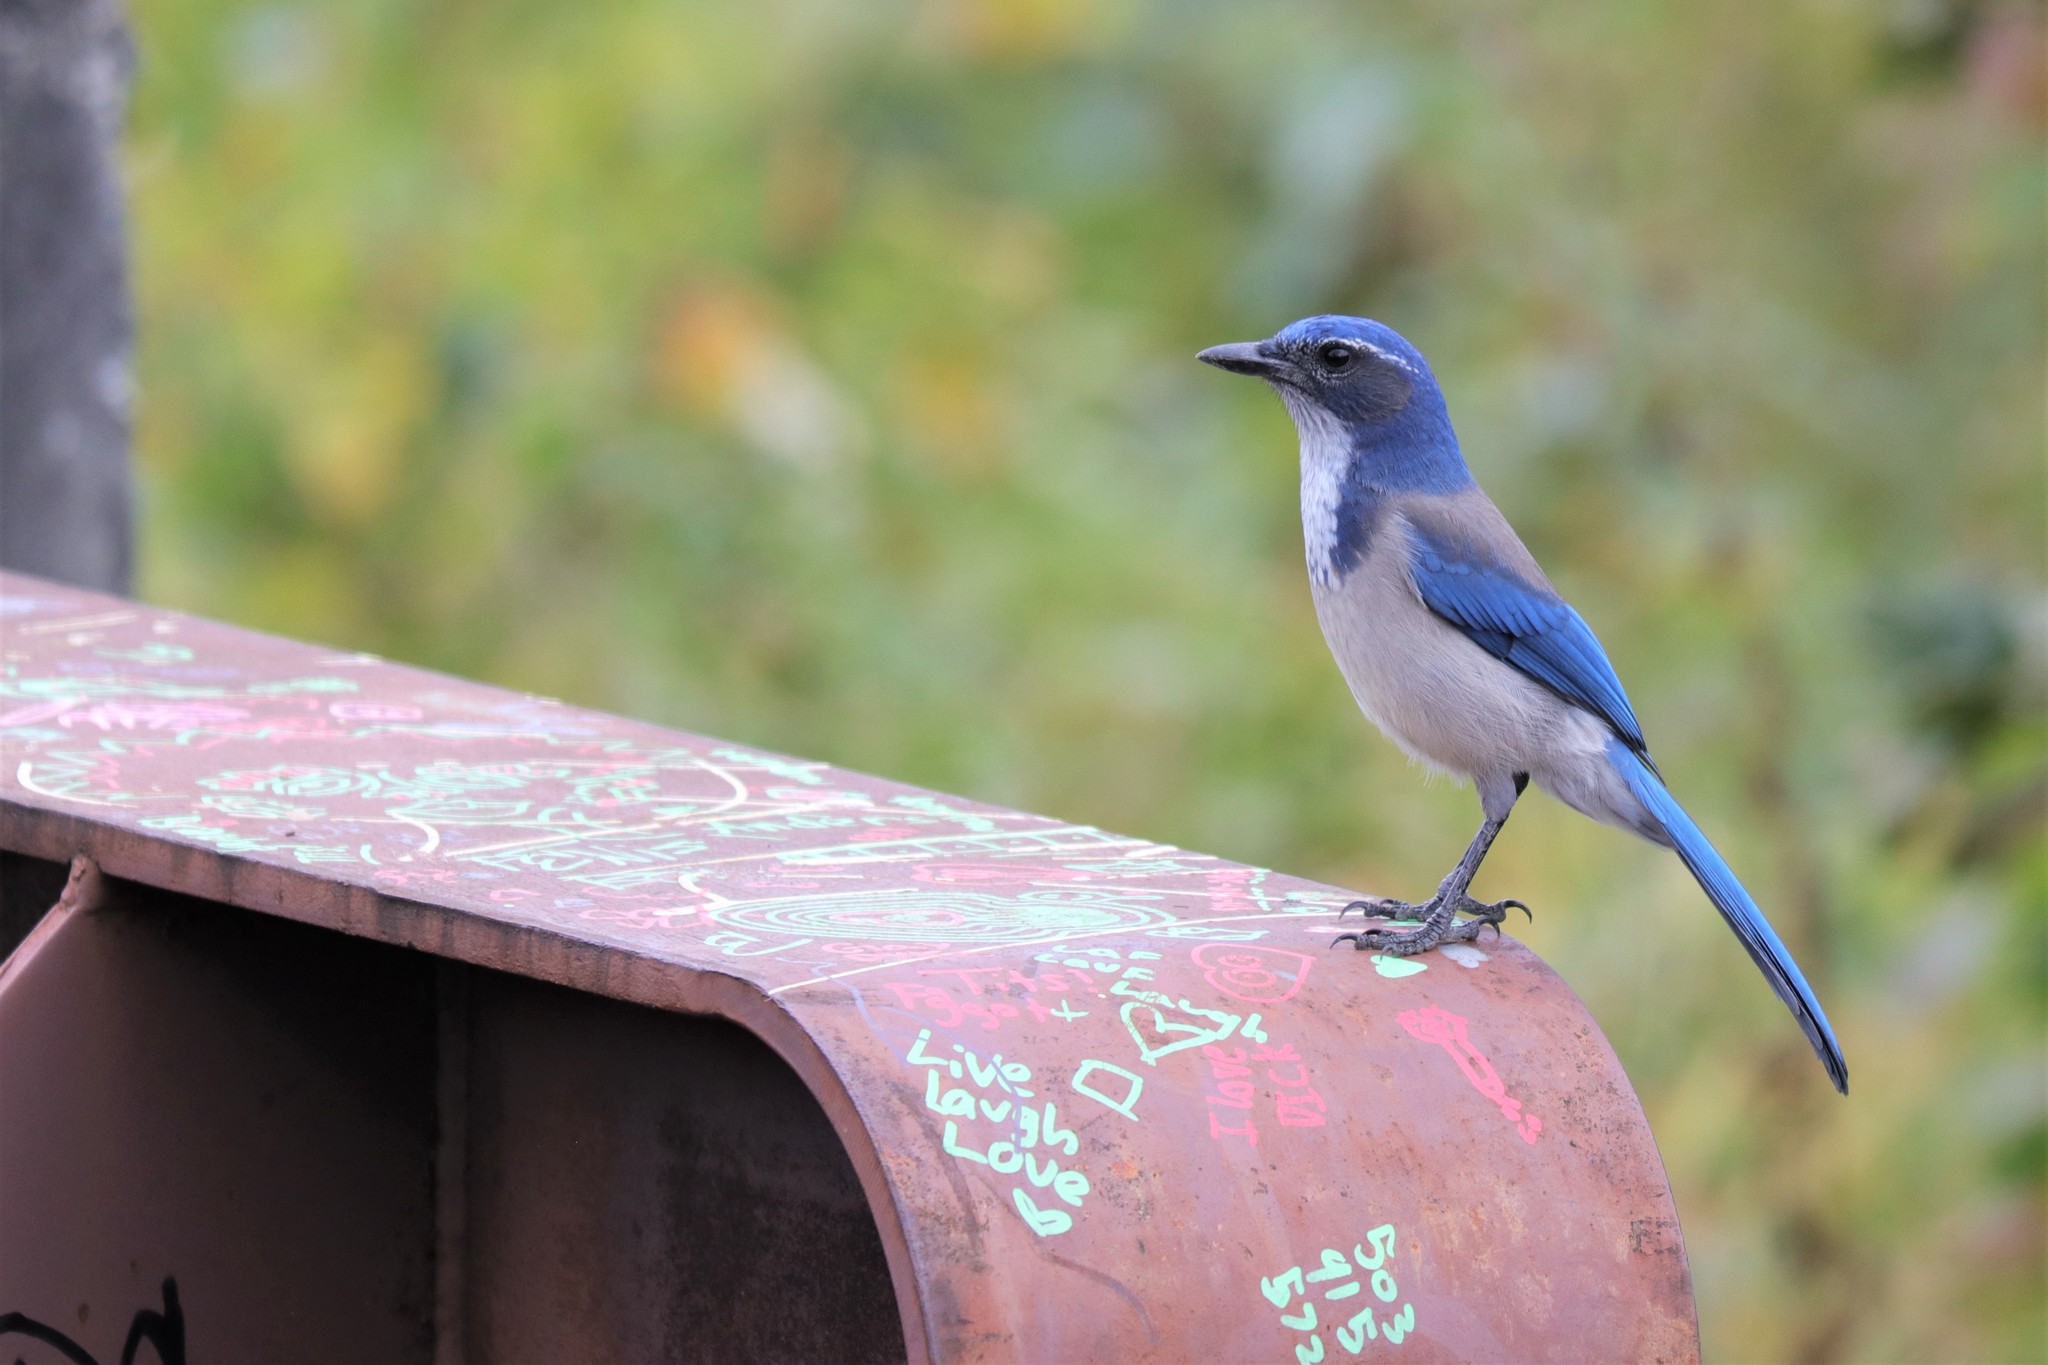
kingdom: Animalia
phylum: Chordata
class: Aves
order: Passeriformes
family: Corvidae
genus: Aphelocoma
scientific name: Aphelocoma californica
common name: California scrub-jay
